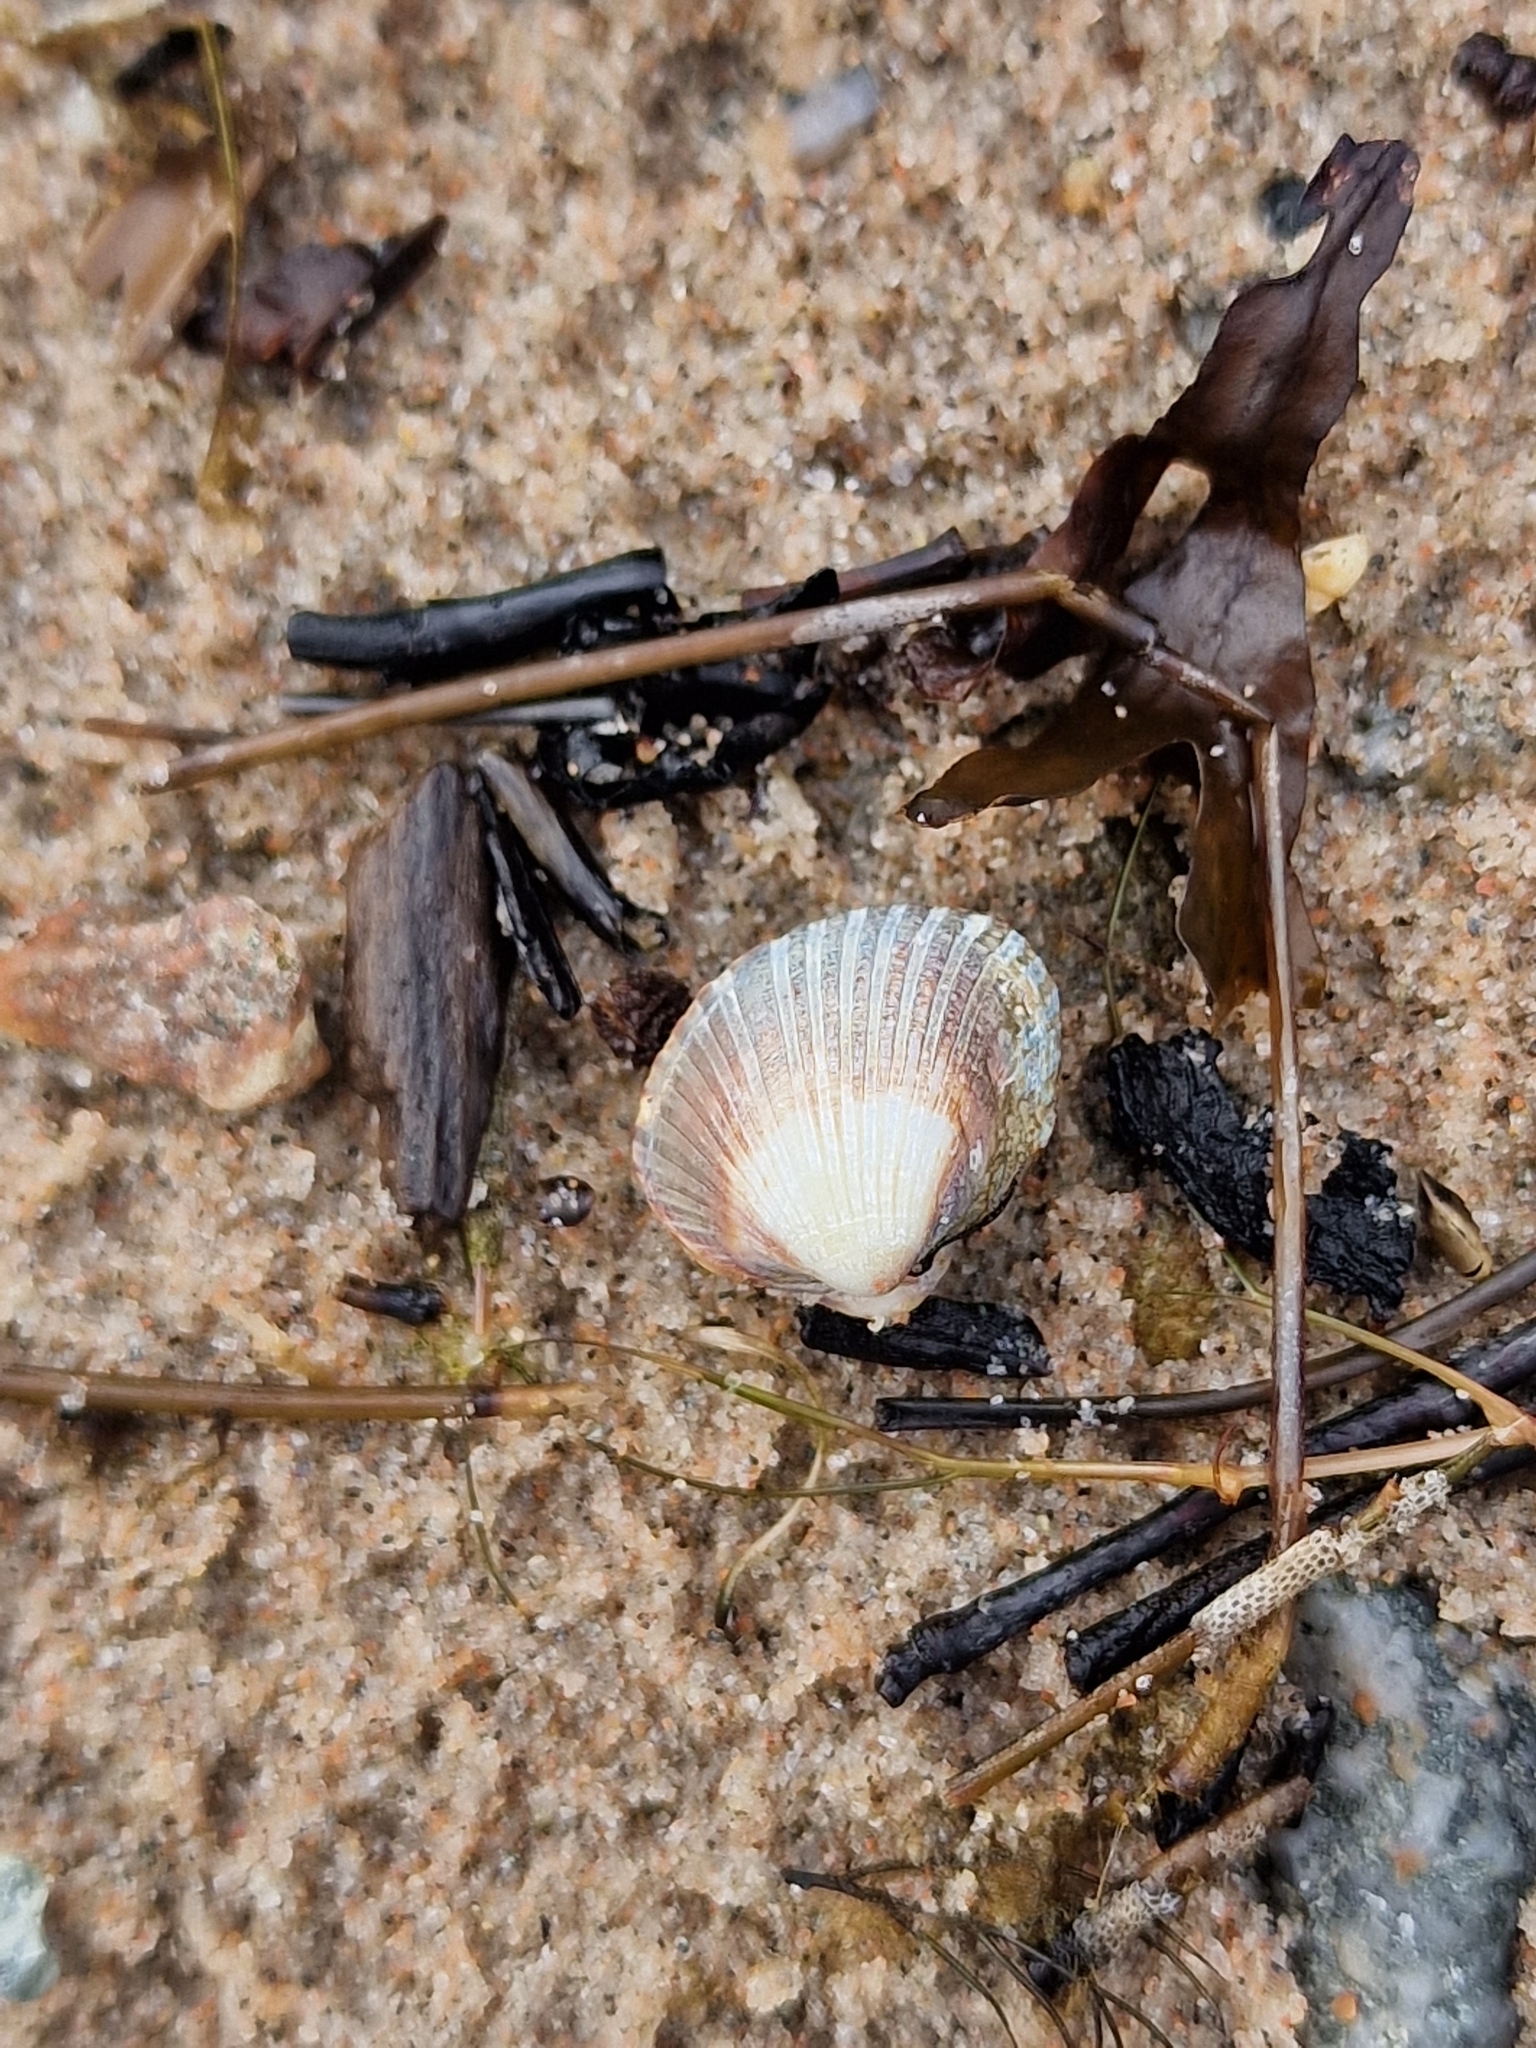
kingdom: Animalia
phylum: Mollusca
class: Bivalvia
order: Cardiida
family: Cardiidae
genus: Cerastoderma
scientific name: Cerastoderma glaucum
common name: Lagoon cockle
